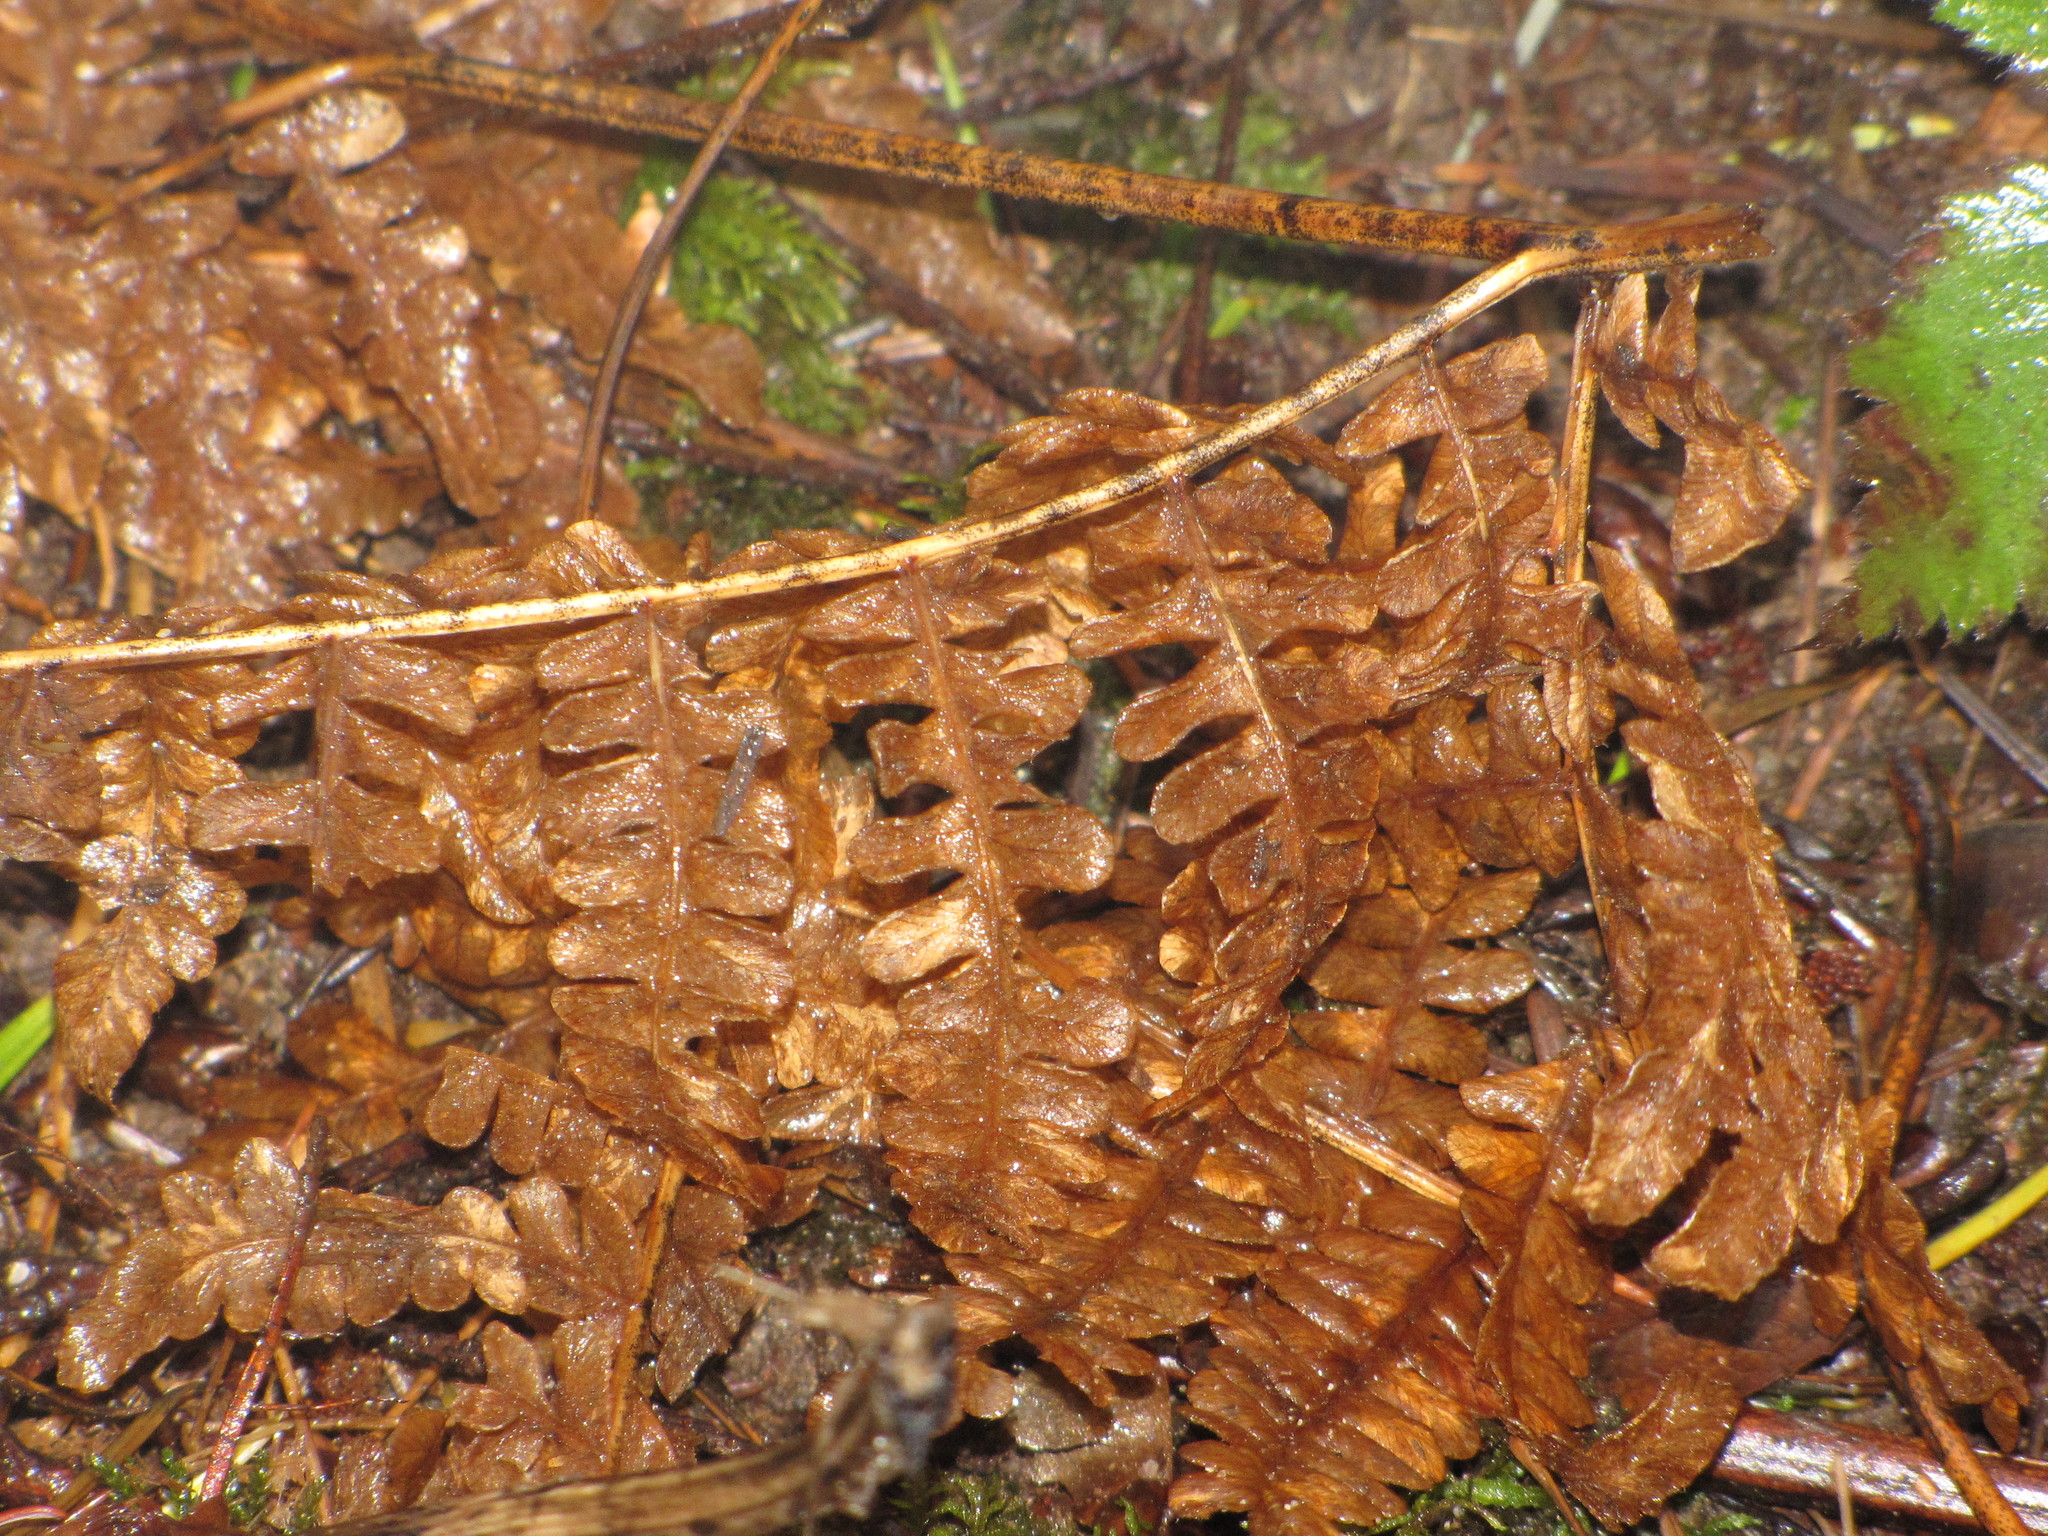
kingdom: Plantae
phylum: Tracheophyta
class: Polypodiopsida
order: Polypodiales
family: Dennstaedtiaceae
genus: Pteridium
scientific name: Pteridium aquilinum
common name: Bracken
